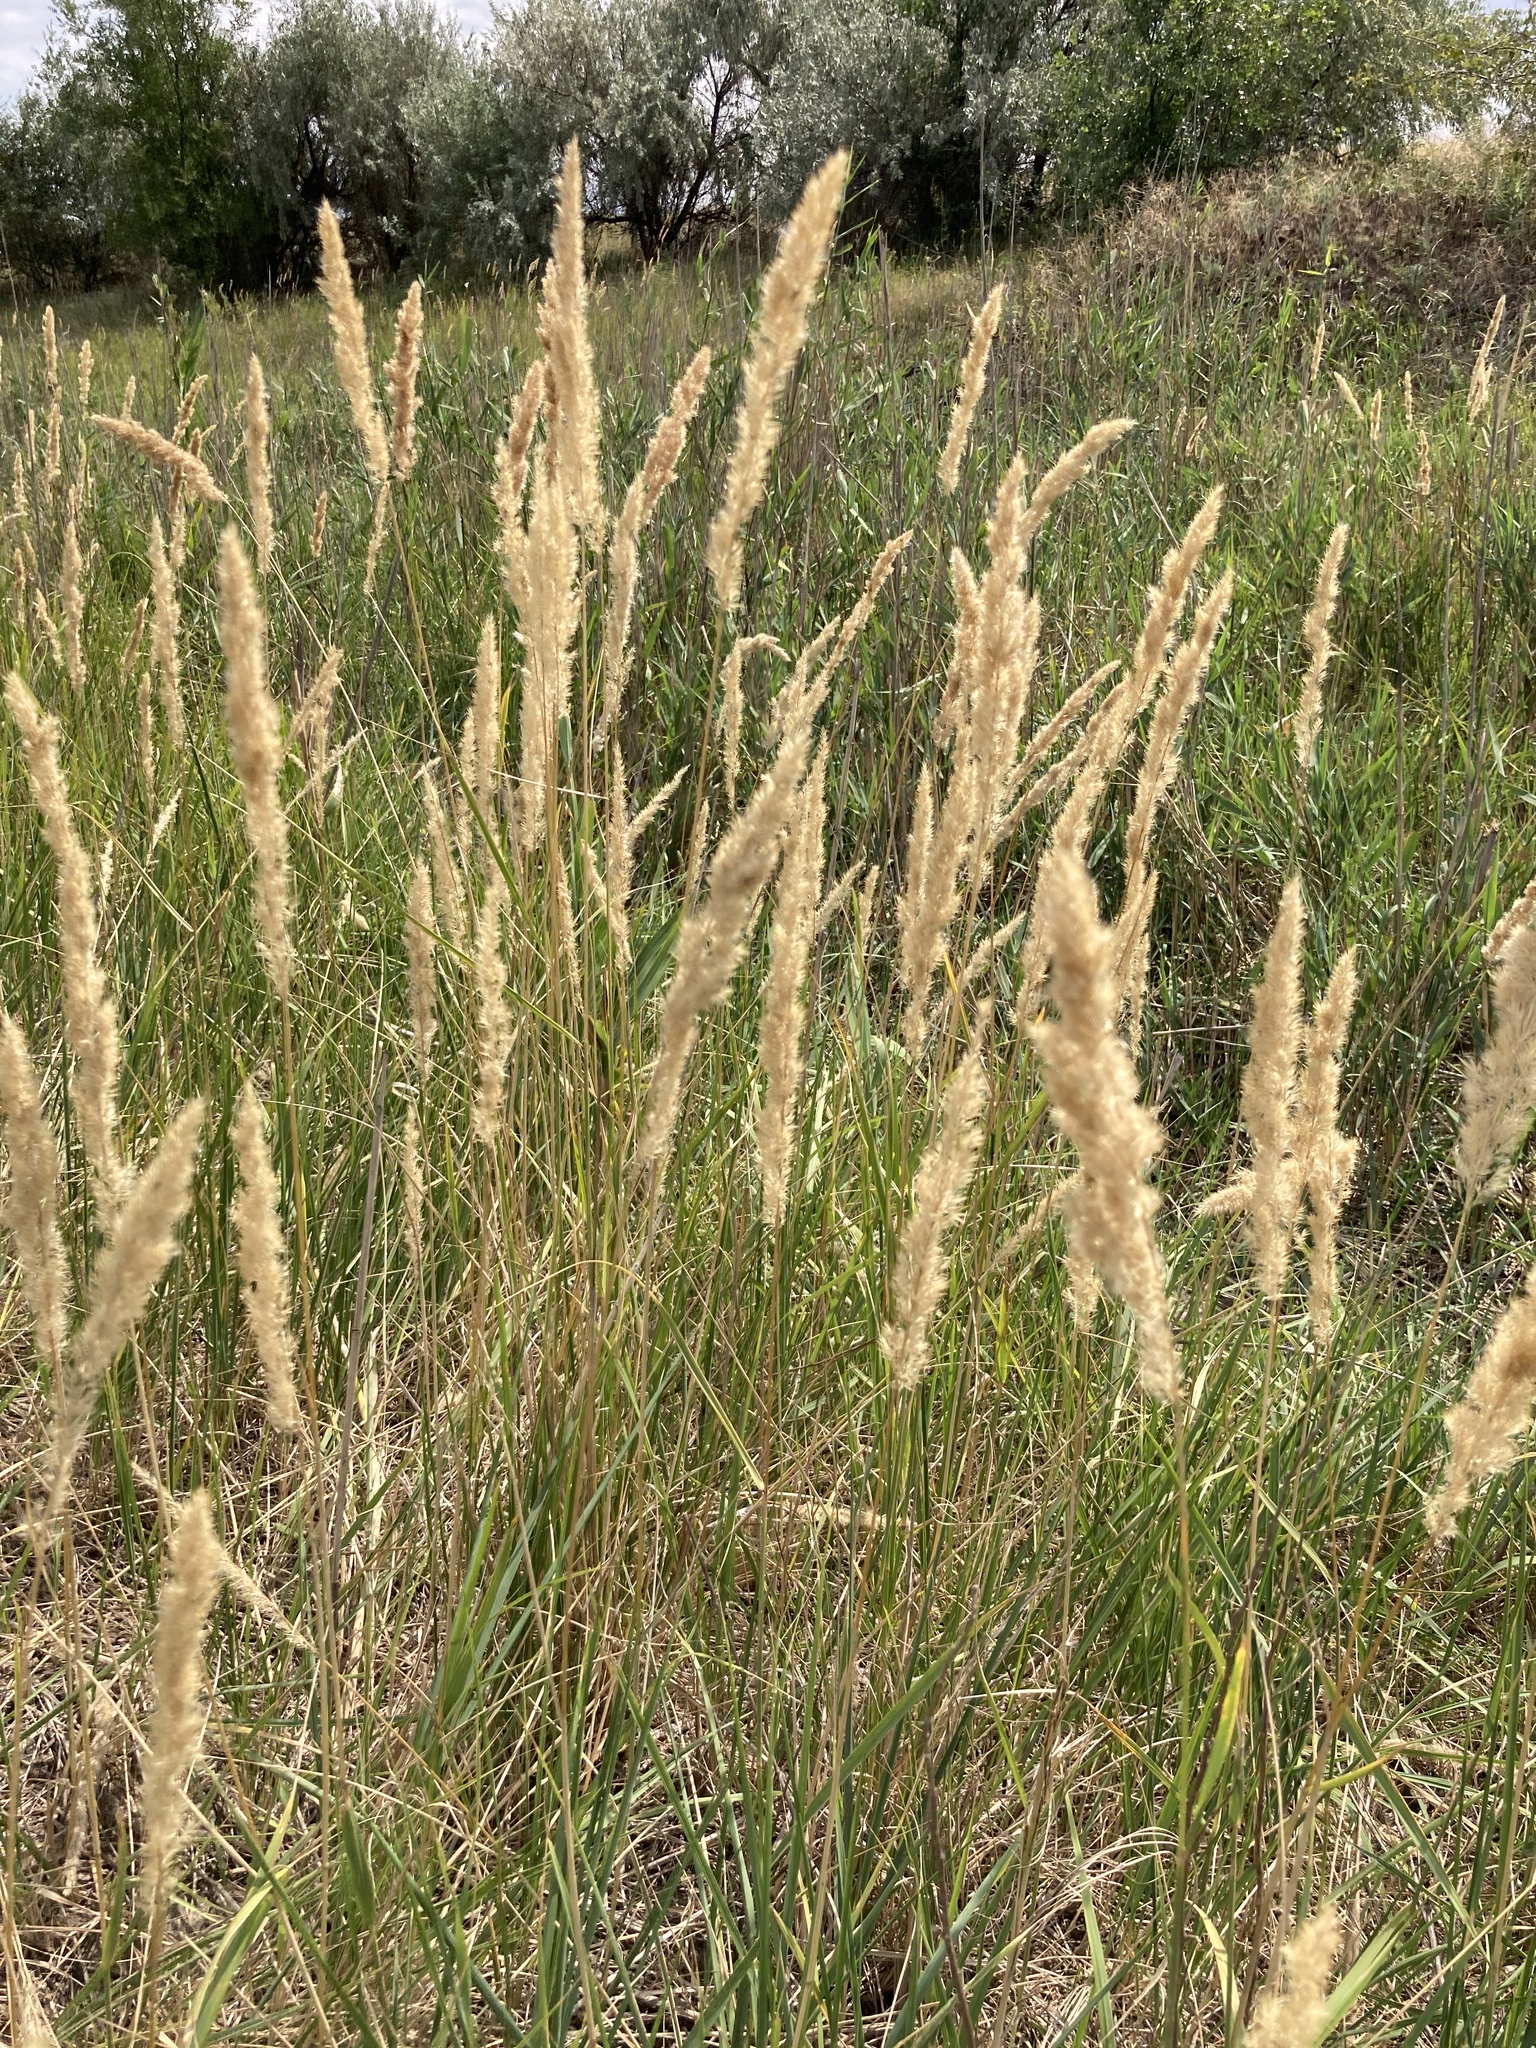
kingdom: Plantae
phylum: Tracheophyta
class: Liliopsida
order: Poales
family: Poaceae
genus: Calamagrostis
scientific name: Calamagrostis epigejos
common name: Wood small-reed
